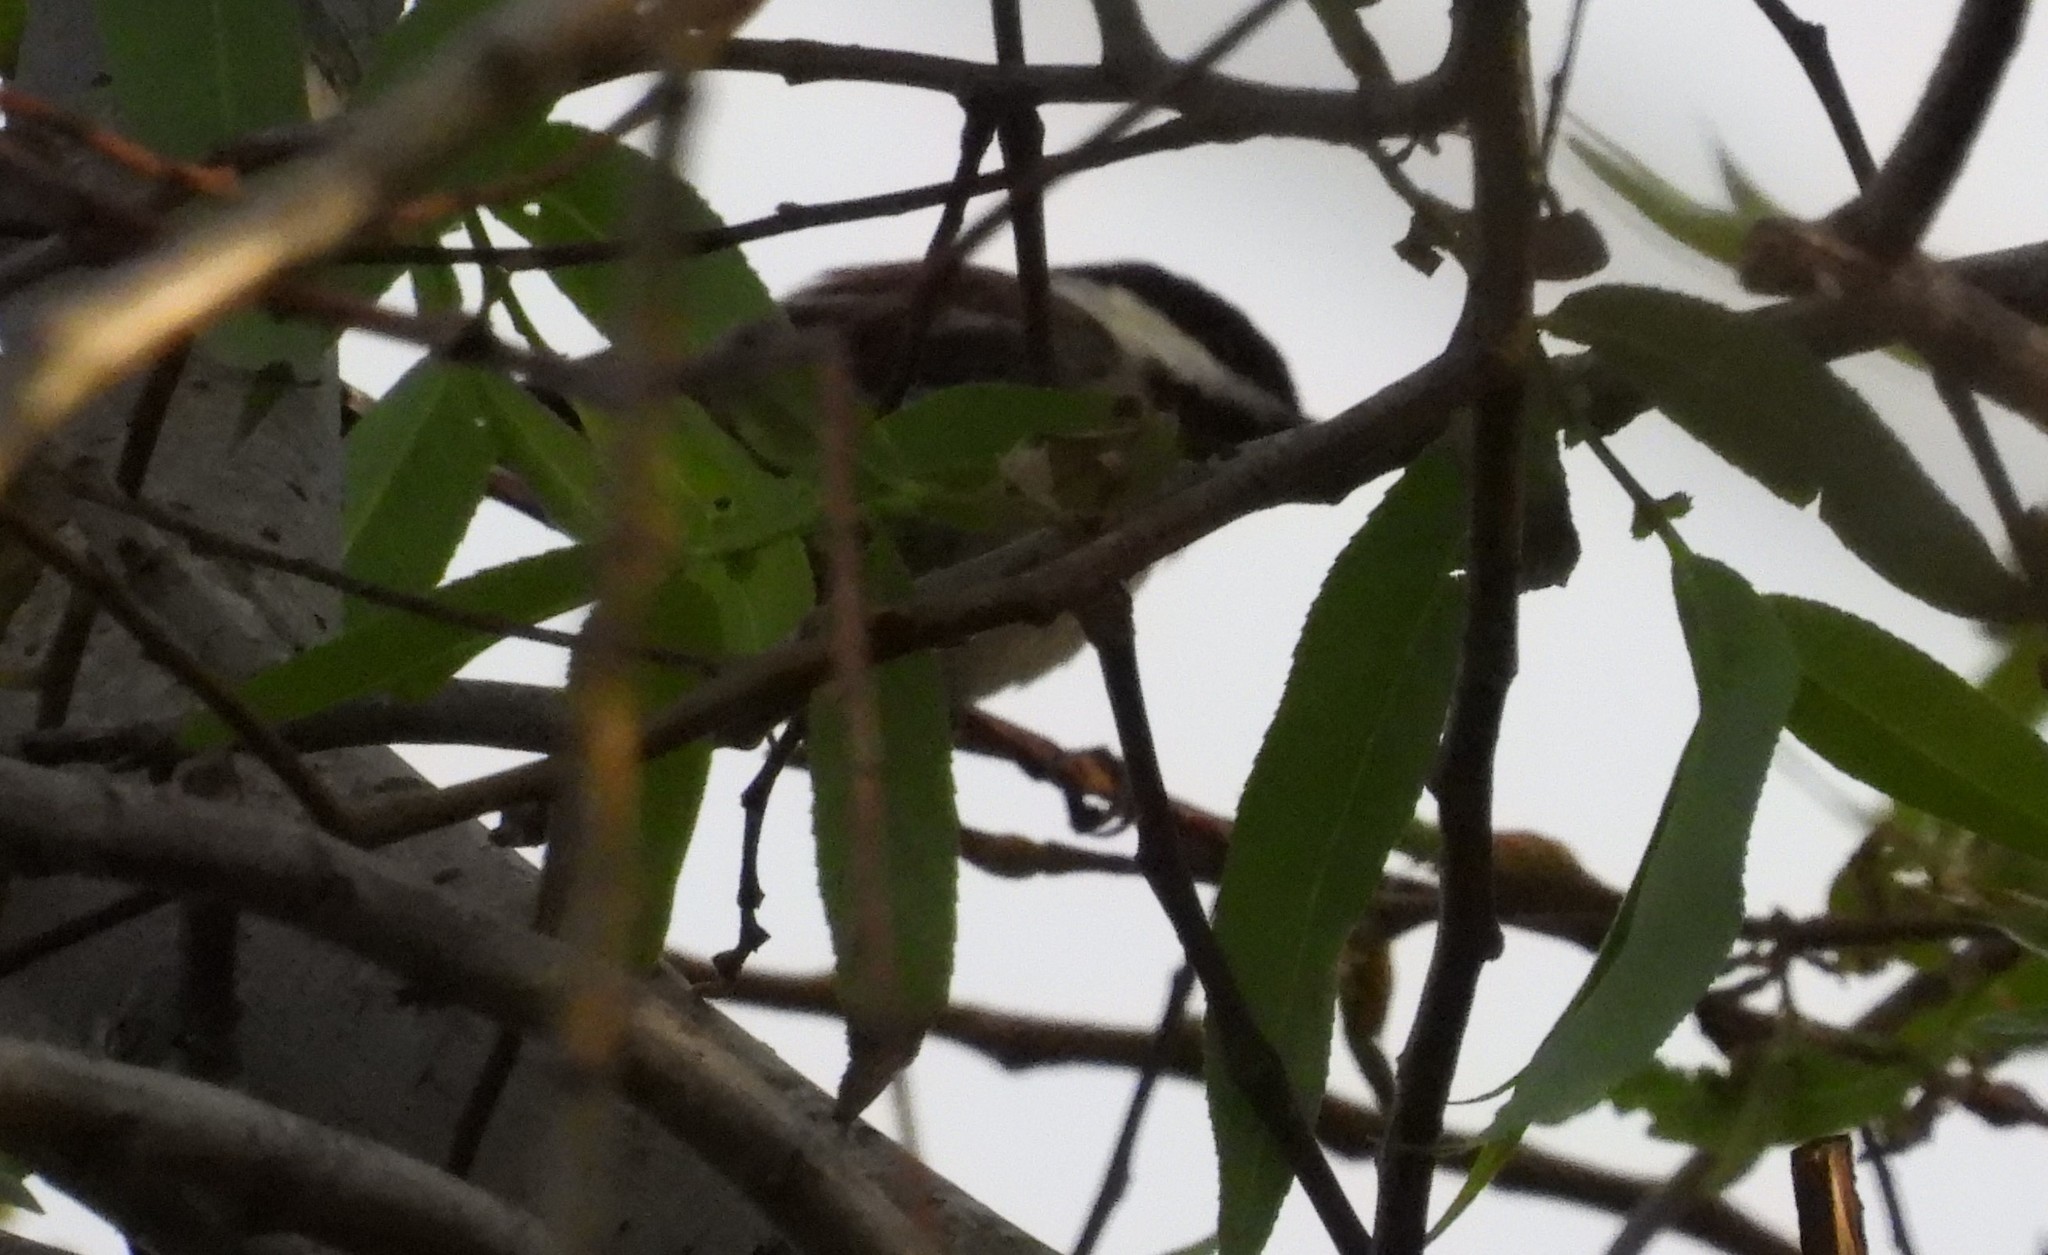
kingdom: Animalia
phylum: Chordata
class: Aves
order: Passeriformes
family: Paridae
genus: Poecile
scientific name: Poecile rufescens
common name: Chestnut-backed chickadee
